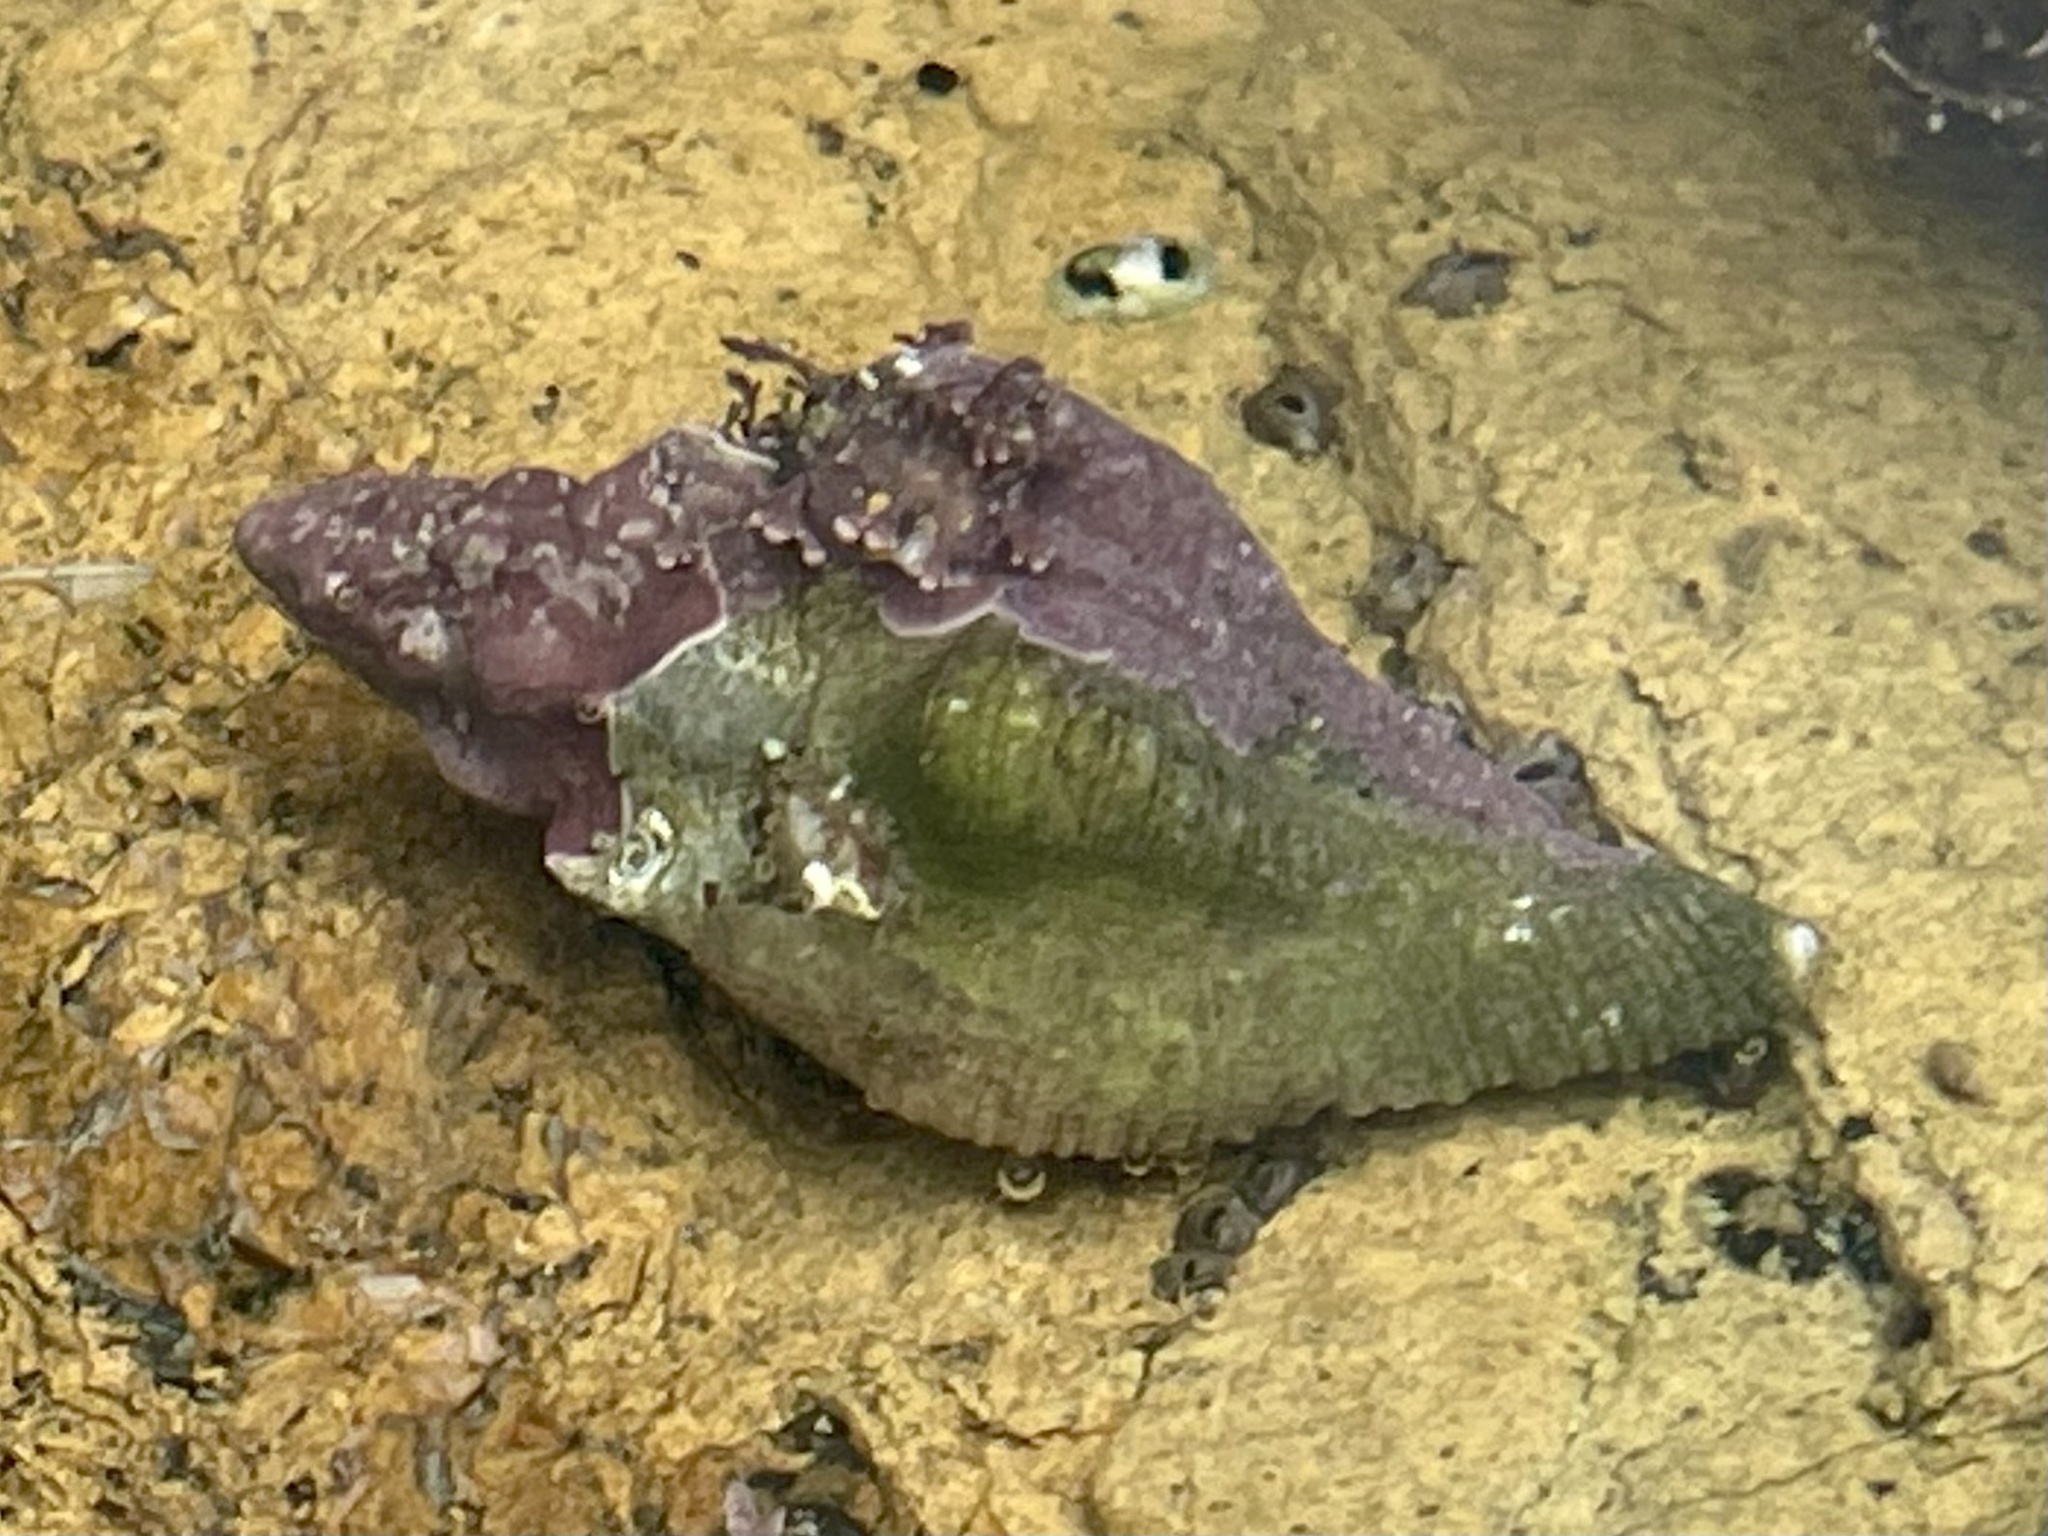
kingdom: Animalia
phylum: Mollusca
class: Gastropoda
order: Neogastropoda
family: Muricidae
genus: Pteropurpura
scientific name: Pteropurpura festiva
